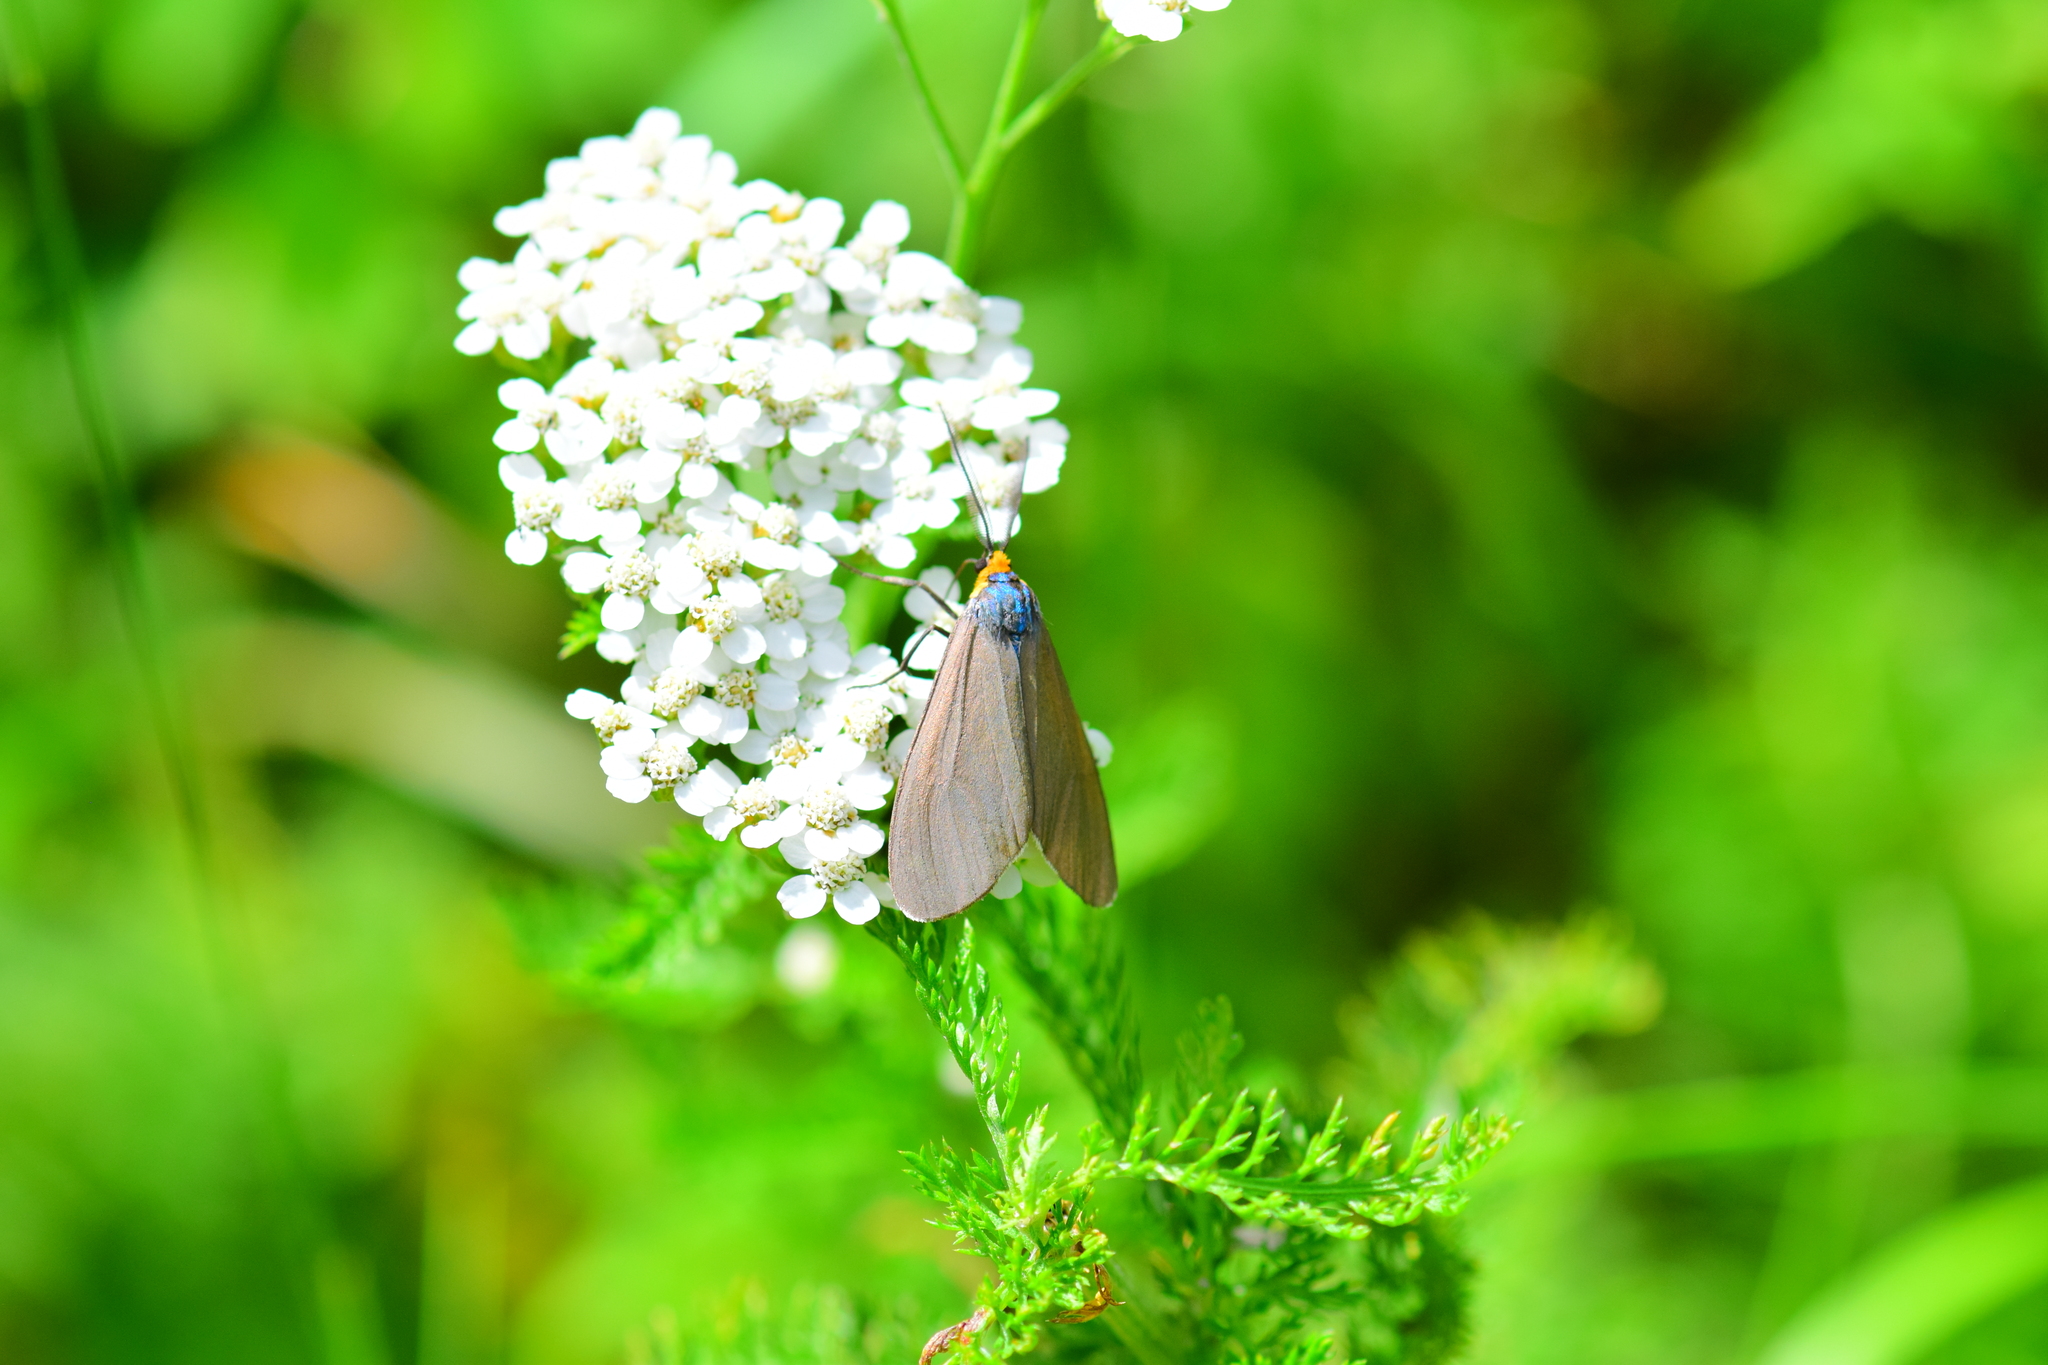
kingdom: Animalia
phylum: Arthropoda
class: Insecta
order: Lepidoptera
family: Erebidae
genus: Ctenucha
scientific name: Ctenucha virginica
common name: Virginia ctenucha moth
